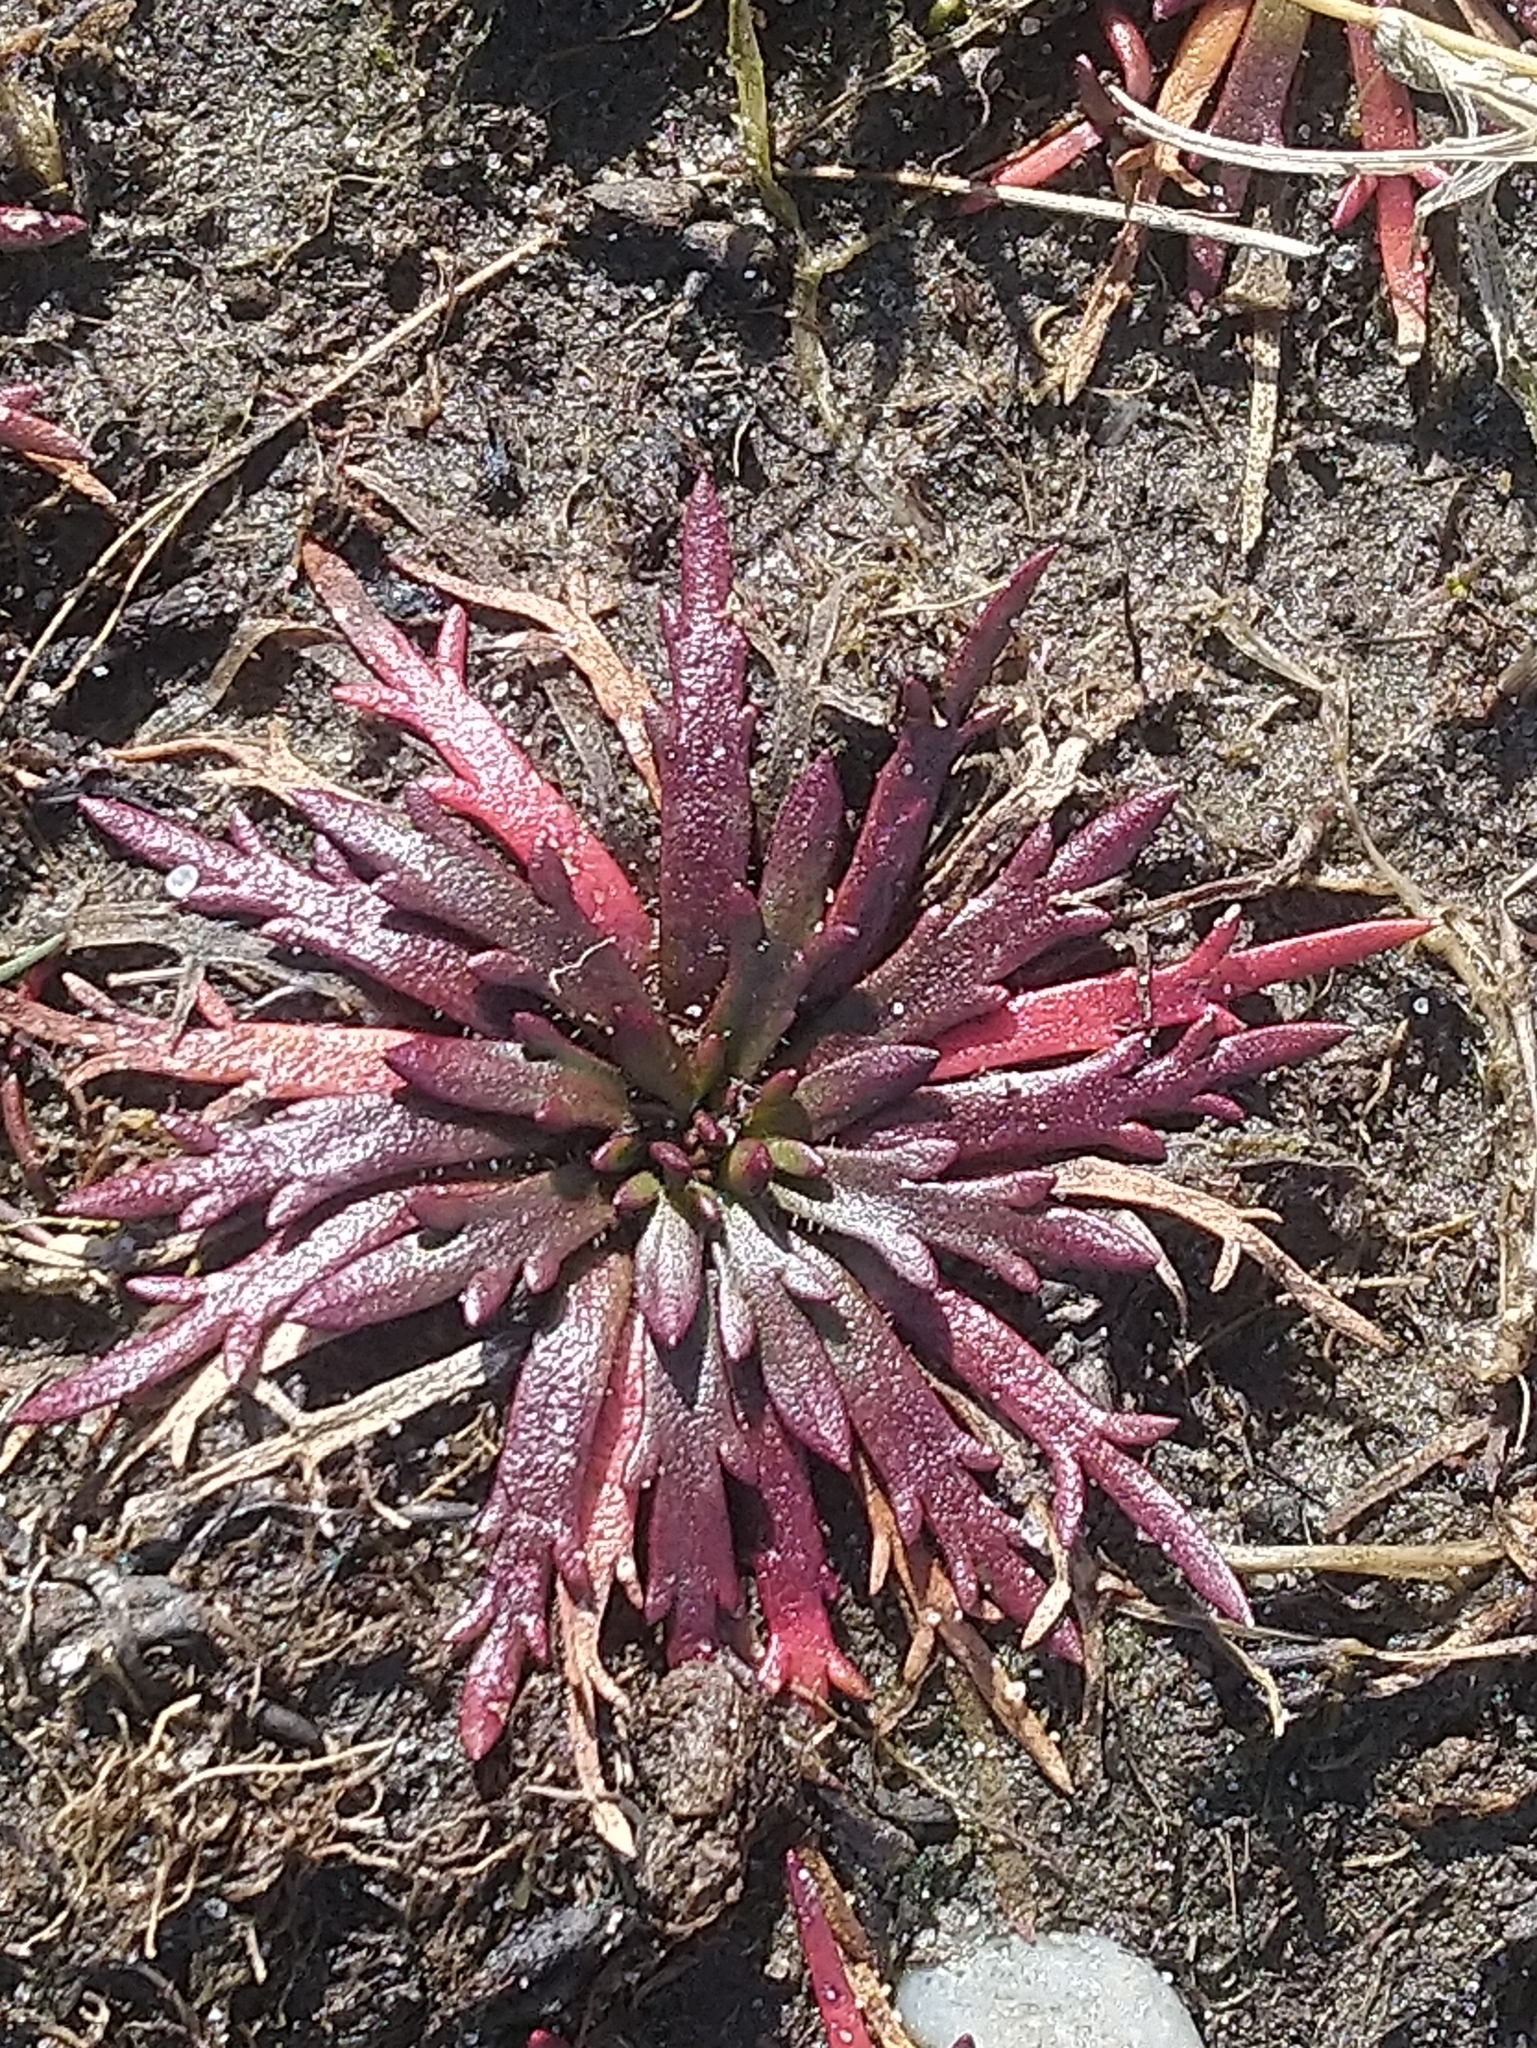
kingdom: Plantae
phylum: Tracheophyta
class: Magnoliopsida
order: Lamiales
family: Plantaginaceae
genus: Plantago
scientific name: Plantago coronopus
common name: Buck's-horn plantain
